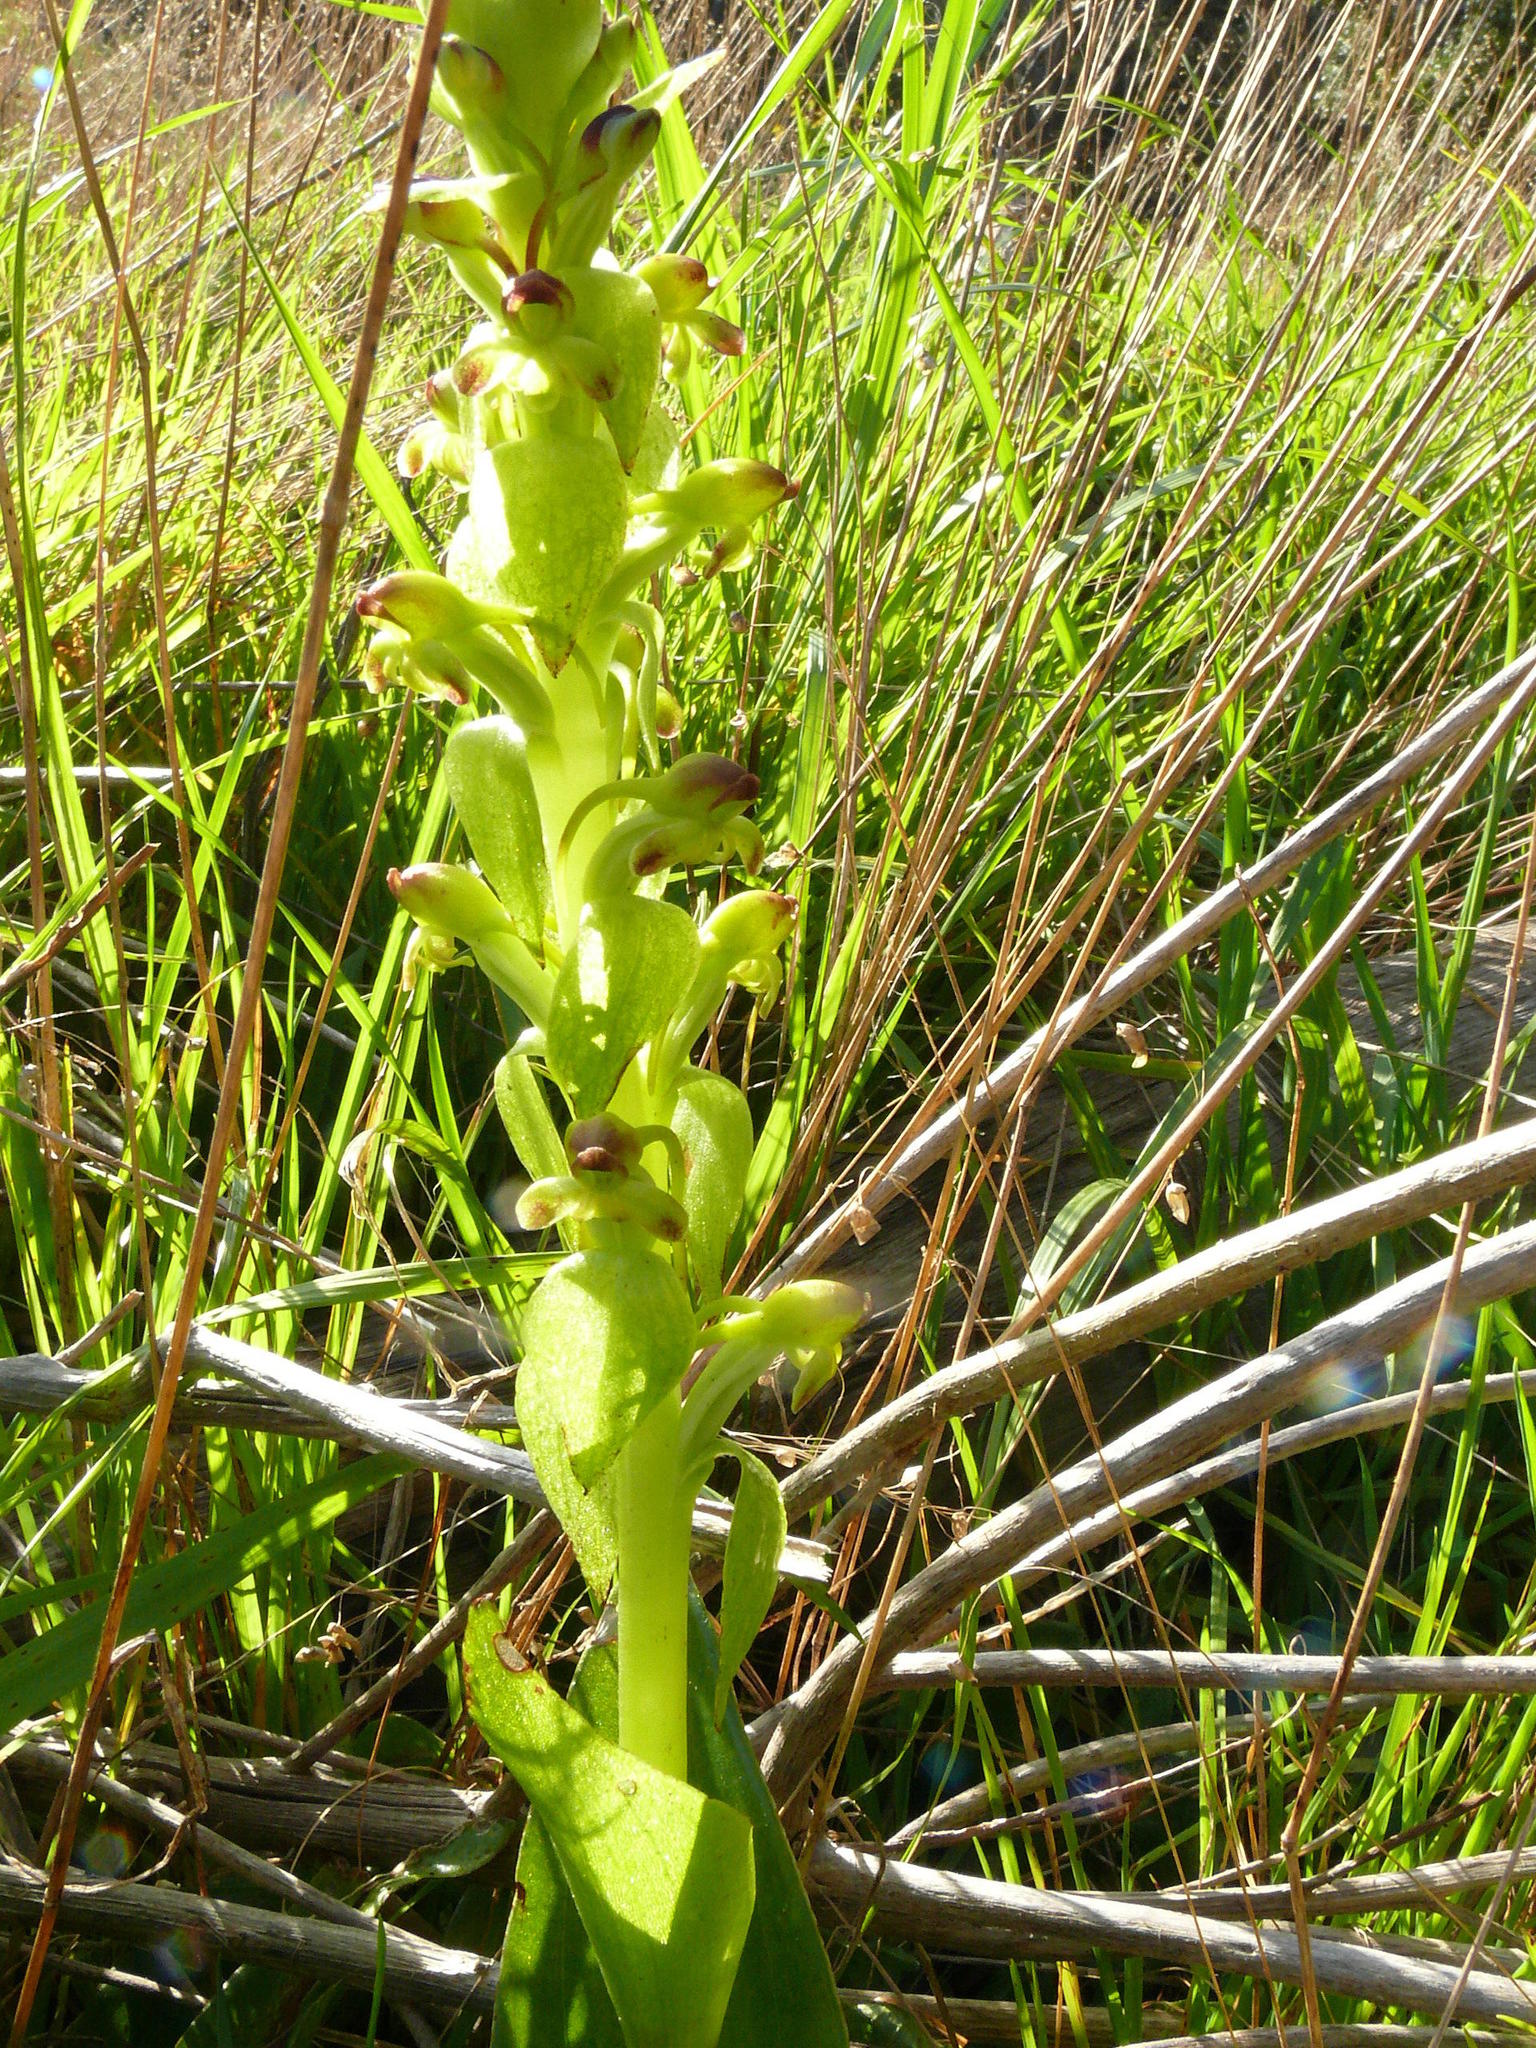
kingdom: Plantae
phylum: Tracheophyta
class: Liliopsida
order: Asparagales
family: Orchidaceae
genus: Satyrium
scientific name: Satyrium odorum
